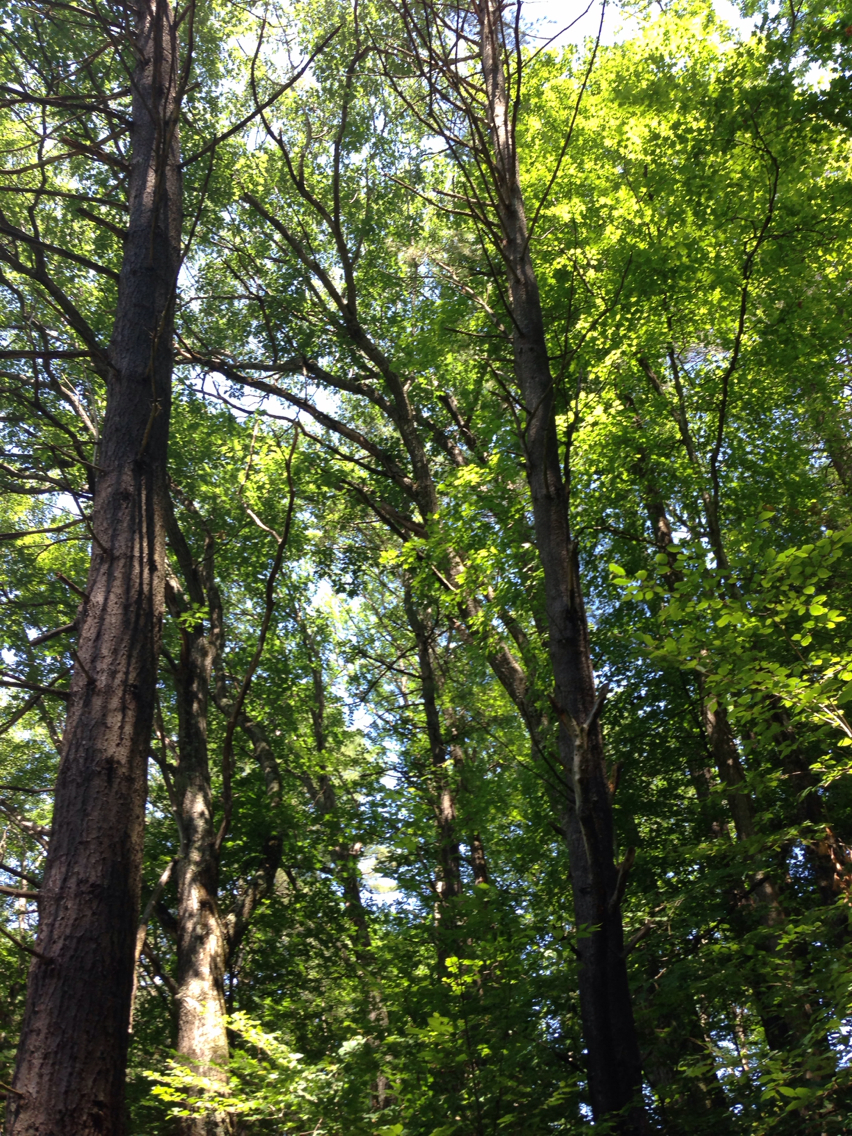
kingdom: Plantae
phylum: Tracheophyta
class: Magnoliopsida
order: Fagales
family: Fagaceae
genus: Quercus
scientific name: Quercus rubra
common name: Red oak
